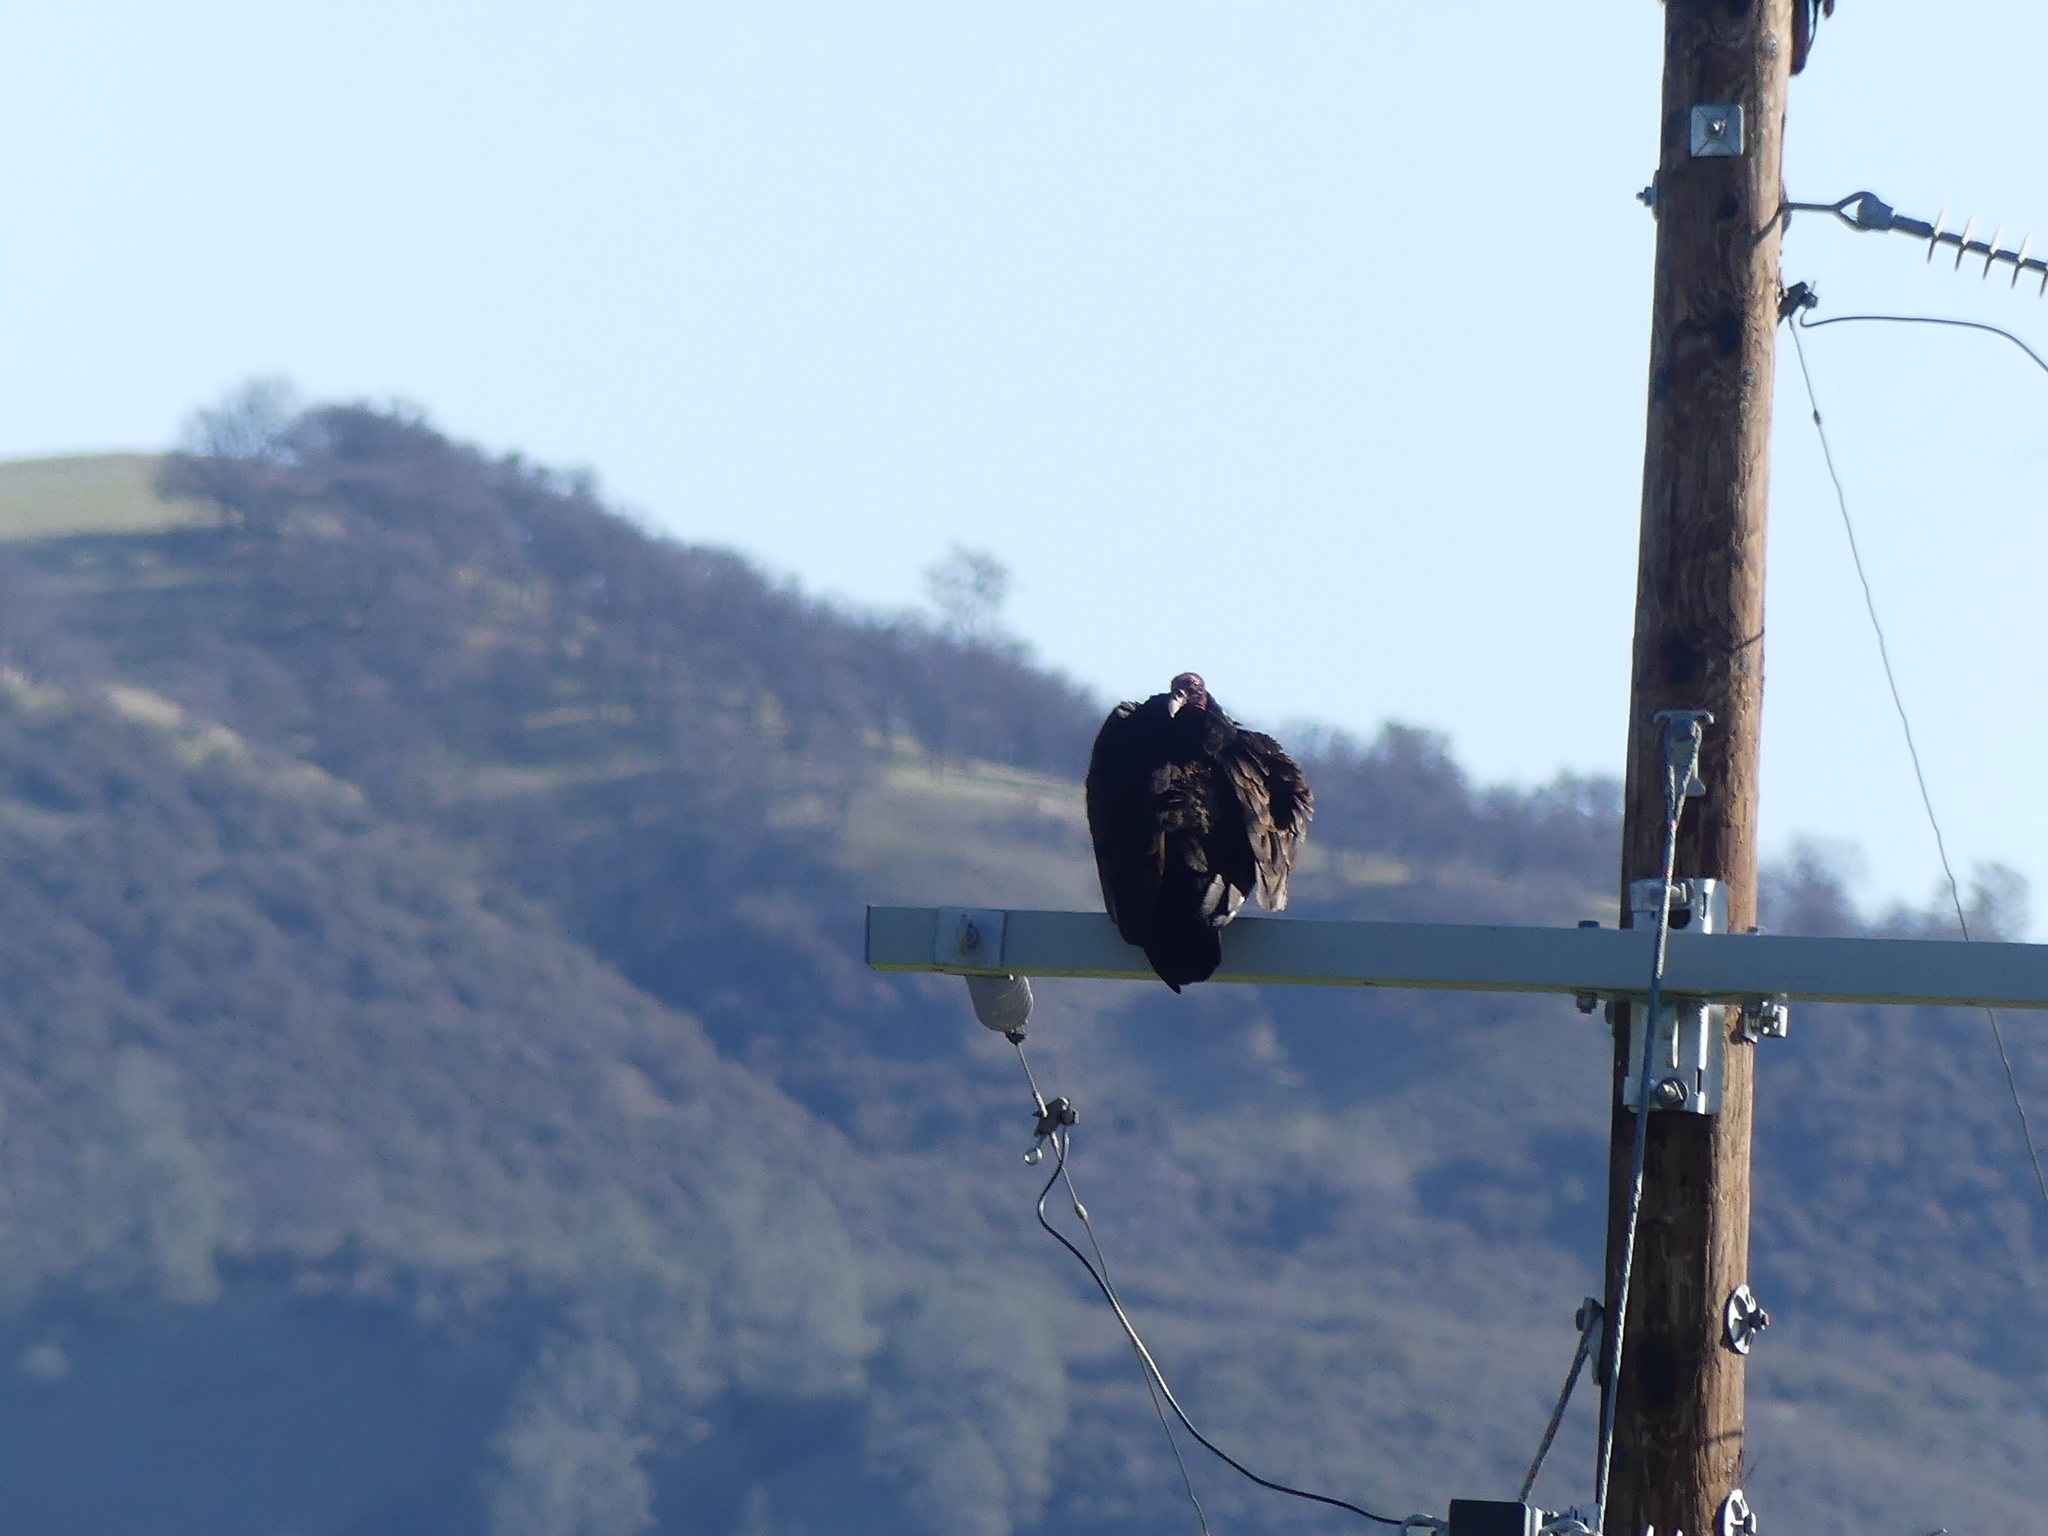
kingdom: Animalia
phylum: Chordata
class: Aves
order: Accipitriformes
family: Cathartidae
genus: Cathartes
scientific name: Cathartes aura
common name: Turkey vulture
